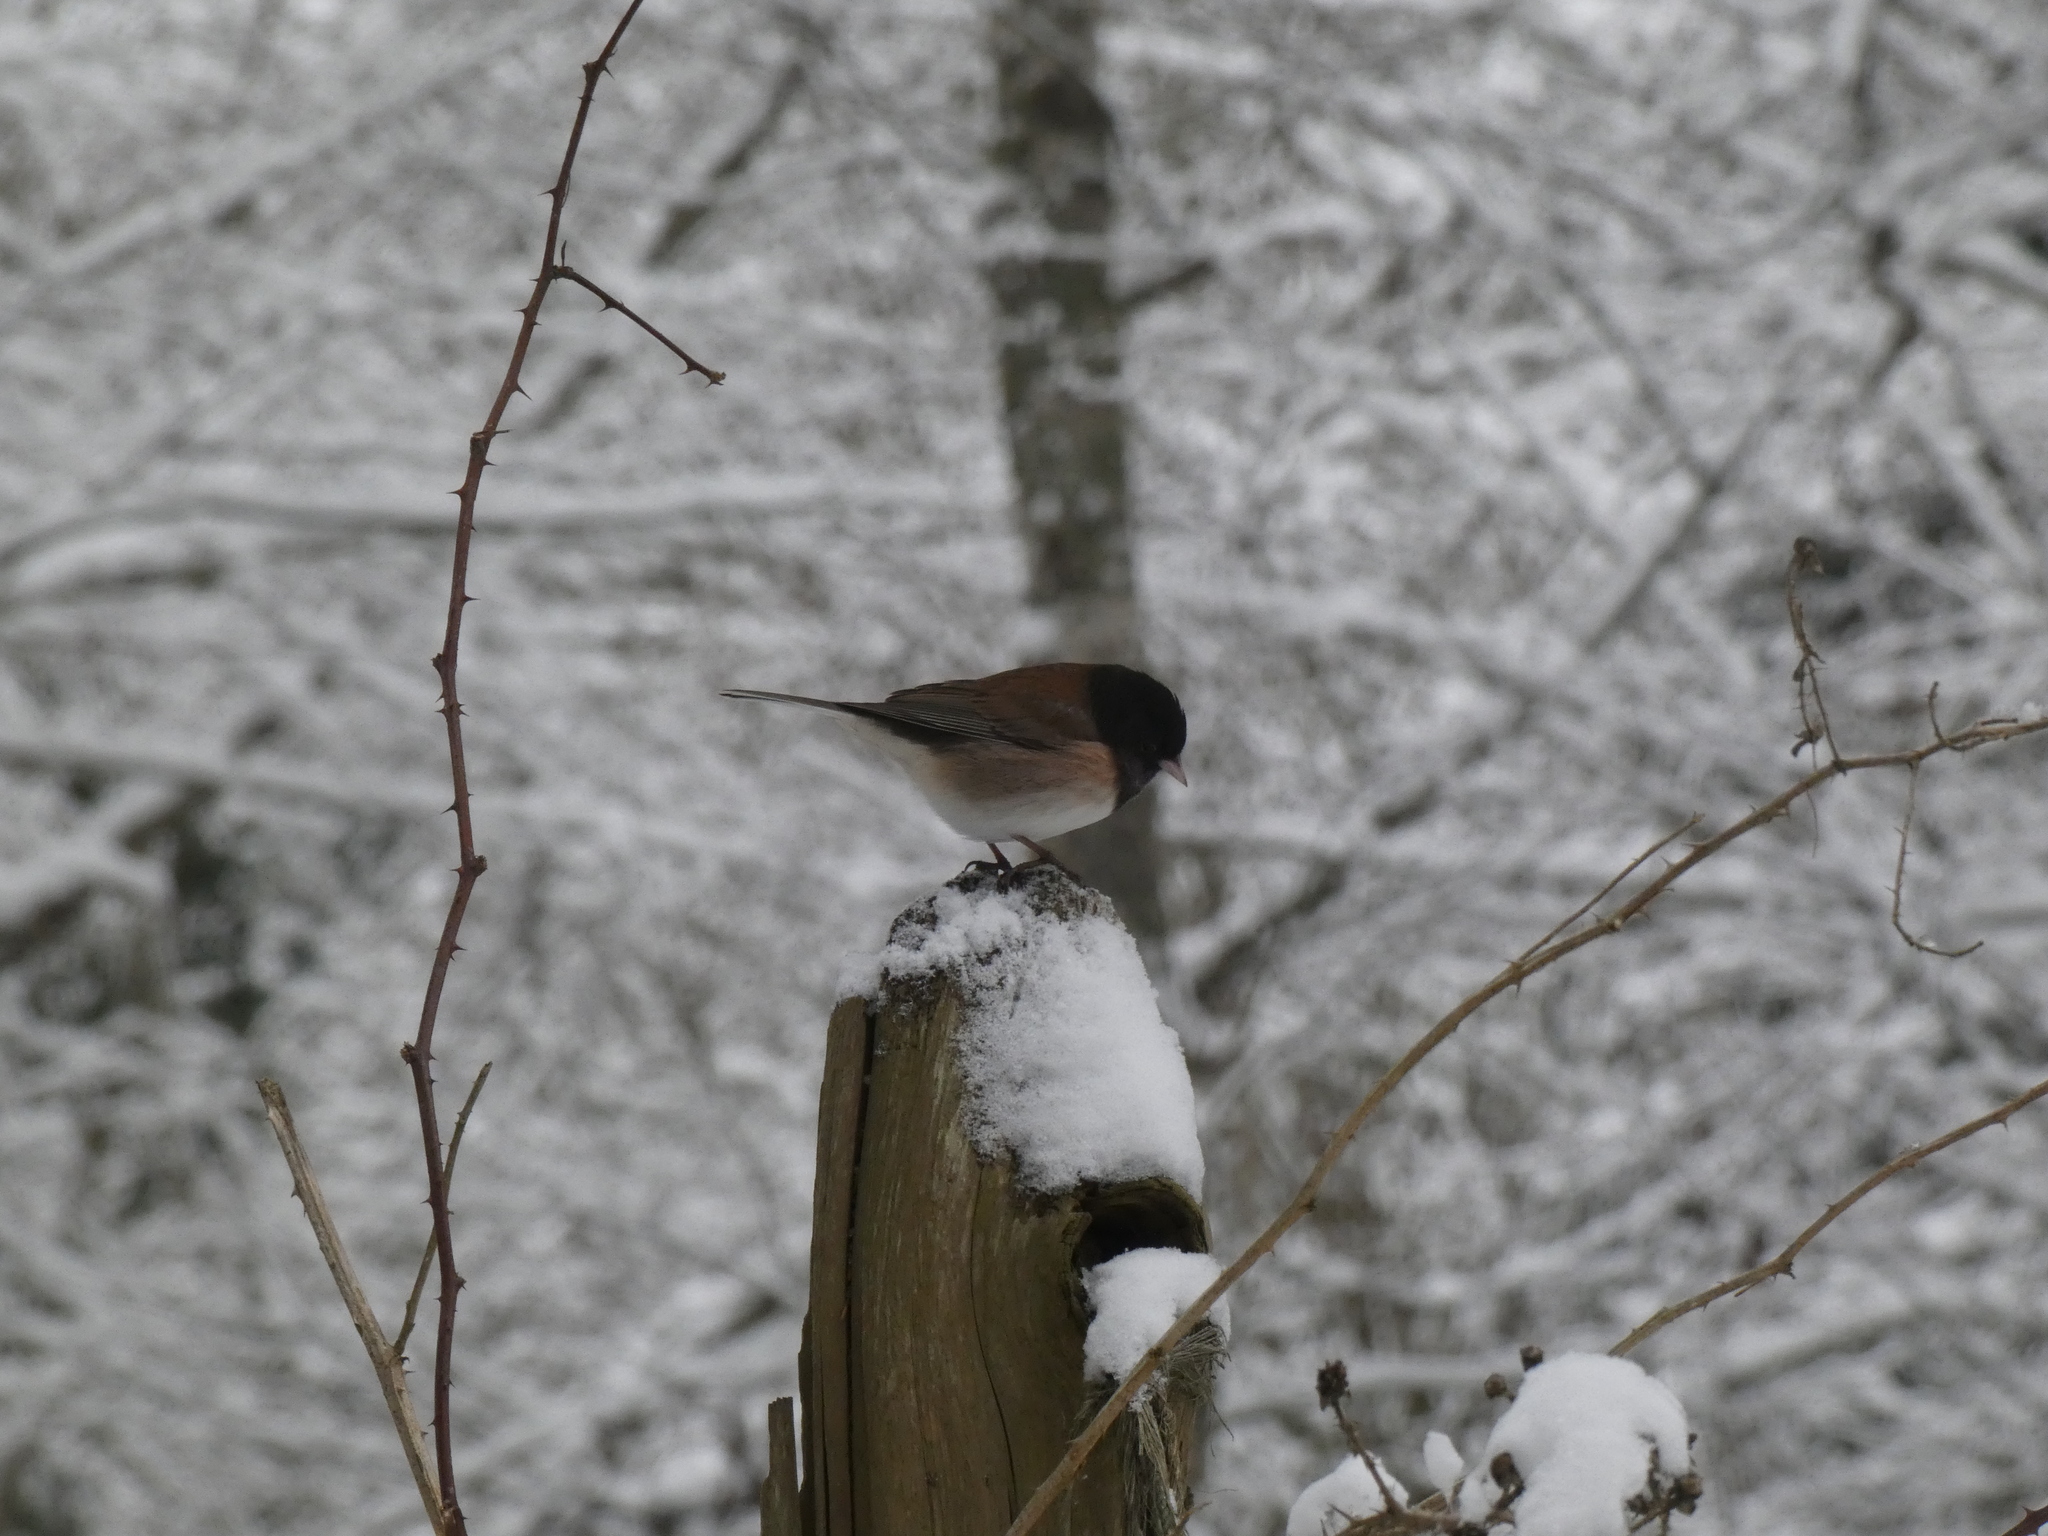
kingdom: Animalia
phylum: Chordata
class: Aves
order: Passeriformes
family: Passerellidae
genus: Junco
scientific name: Junco hyemalis
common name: Dark-eyed junco
